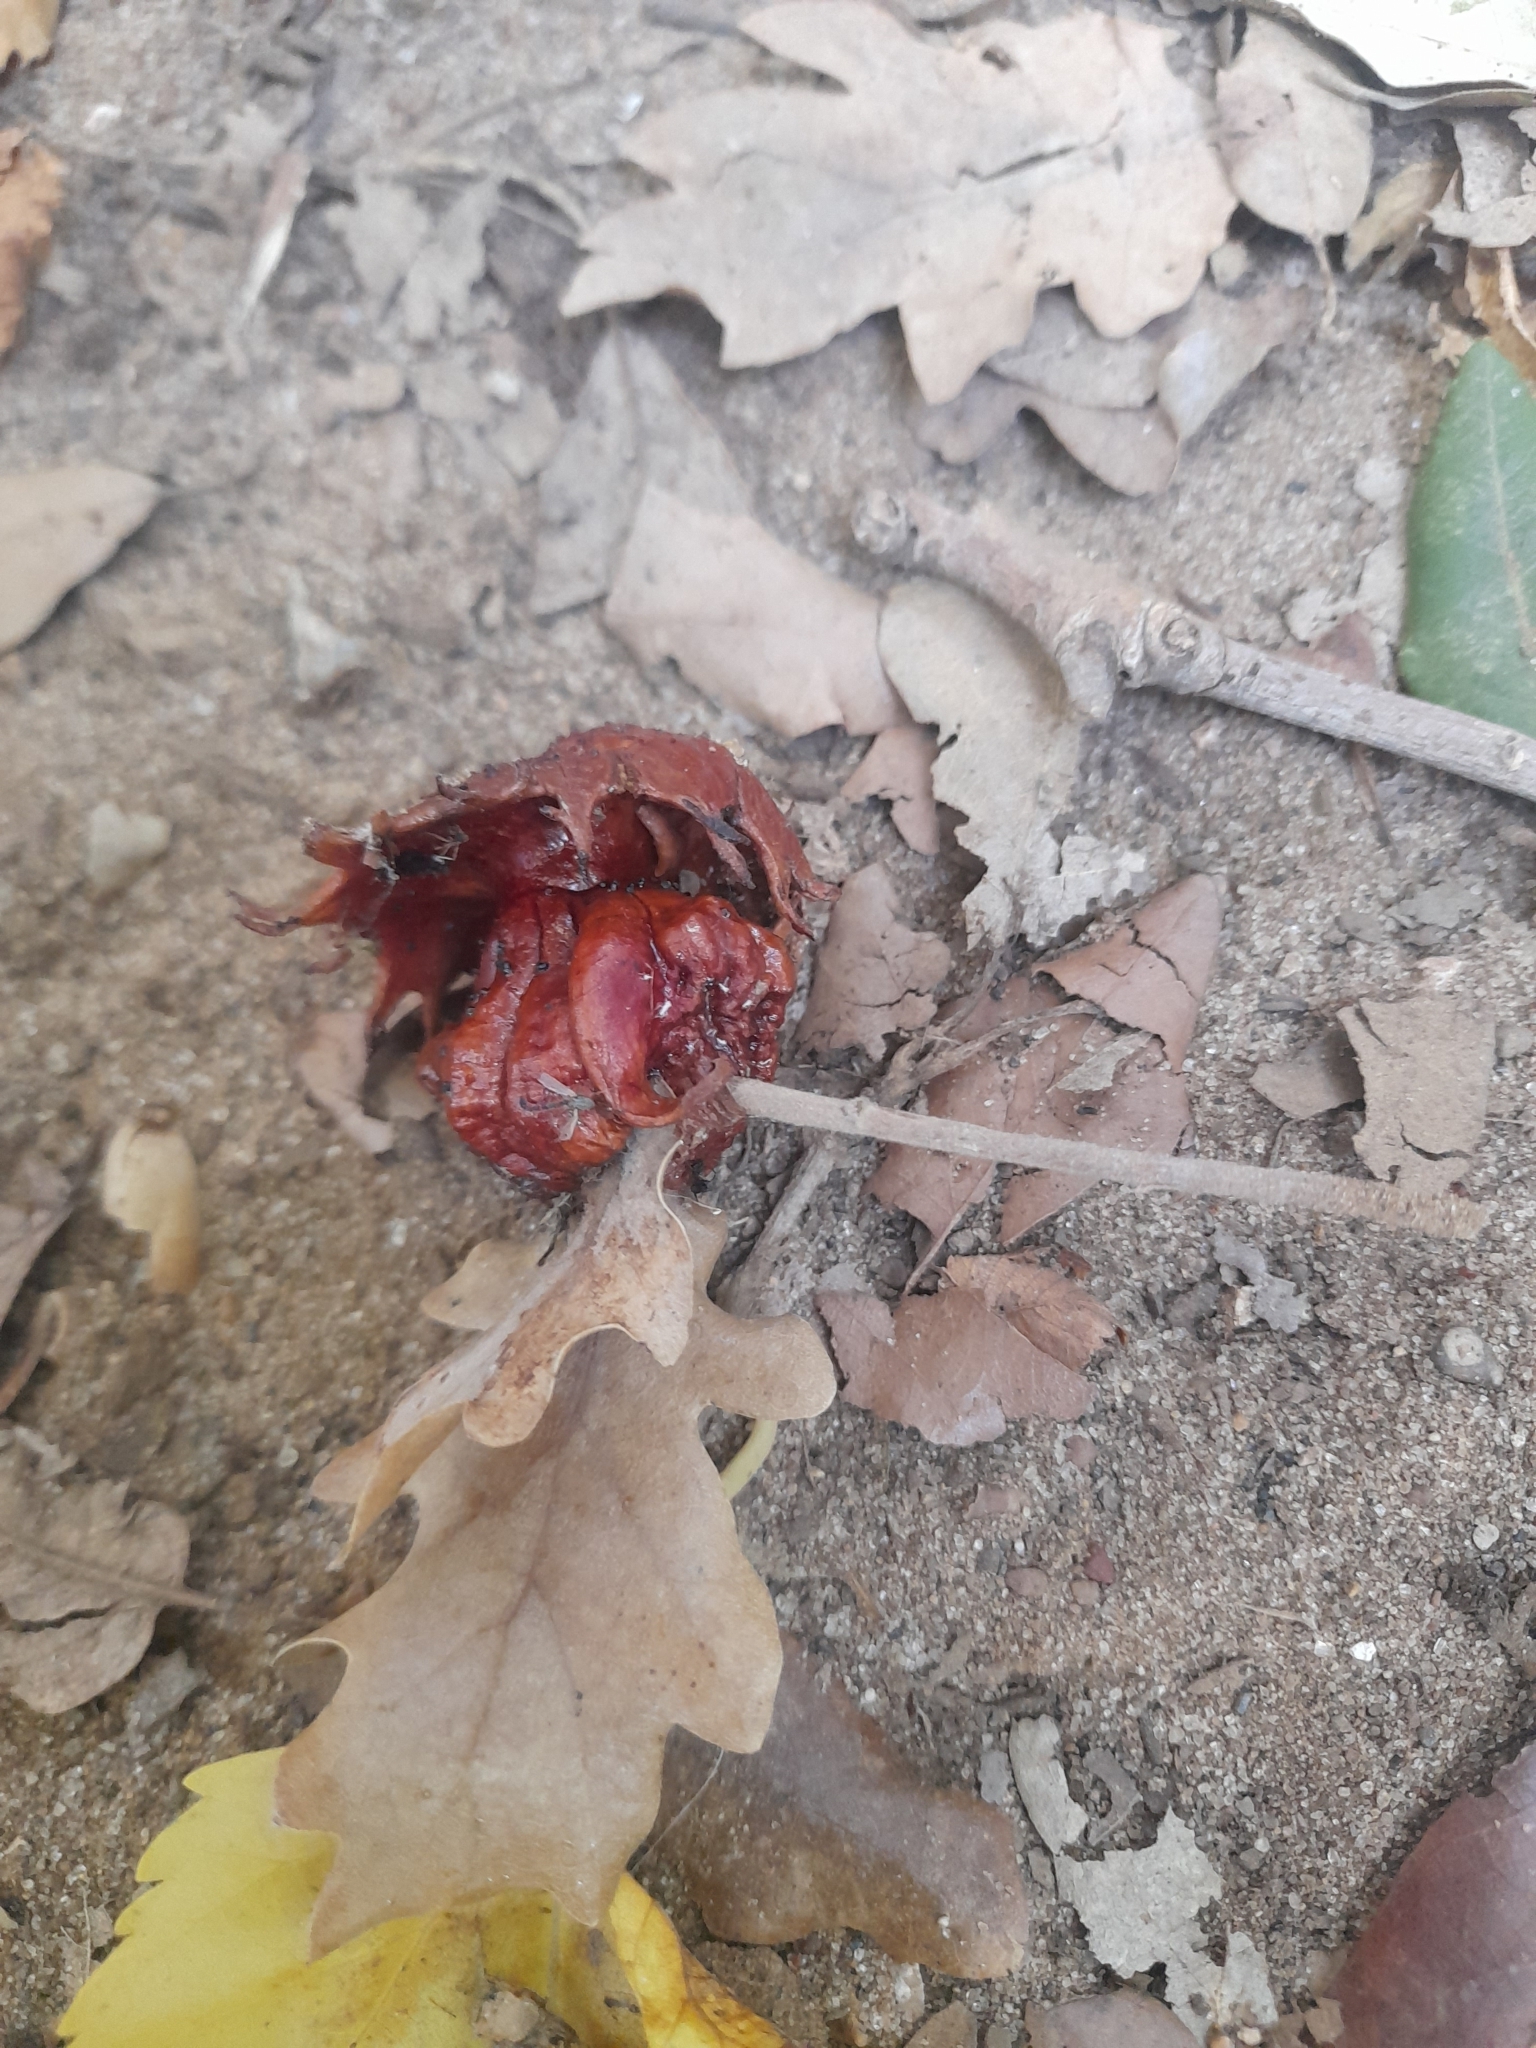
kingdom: Animalia
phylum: Arthropoda
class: Insecta
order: Hymenoptera
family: Cynipidae
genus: Andricus
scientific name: Andricus dentimitratus
